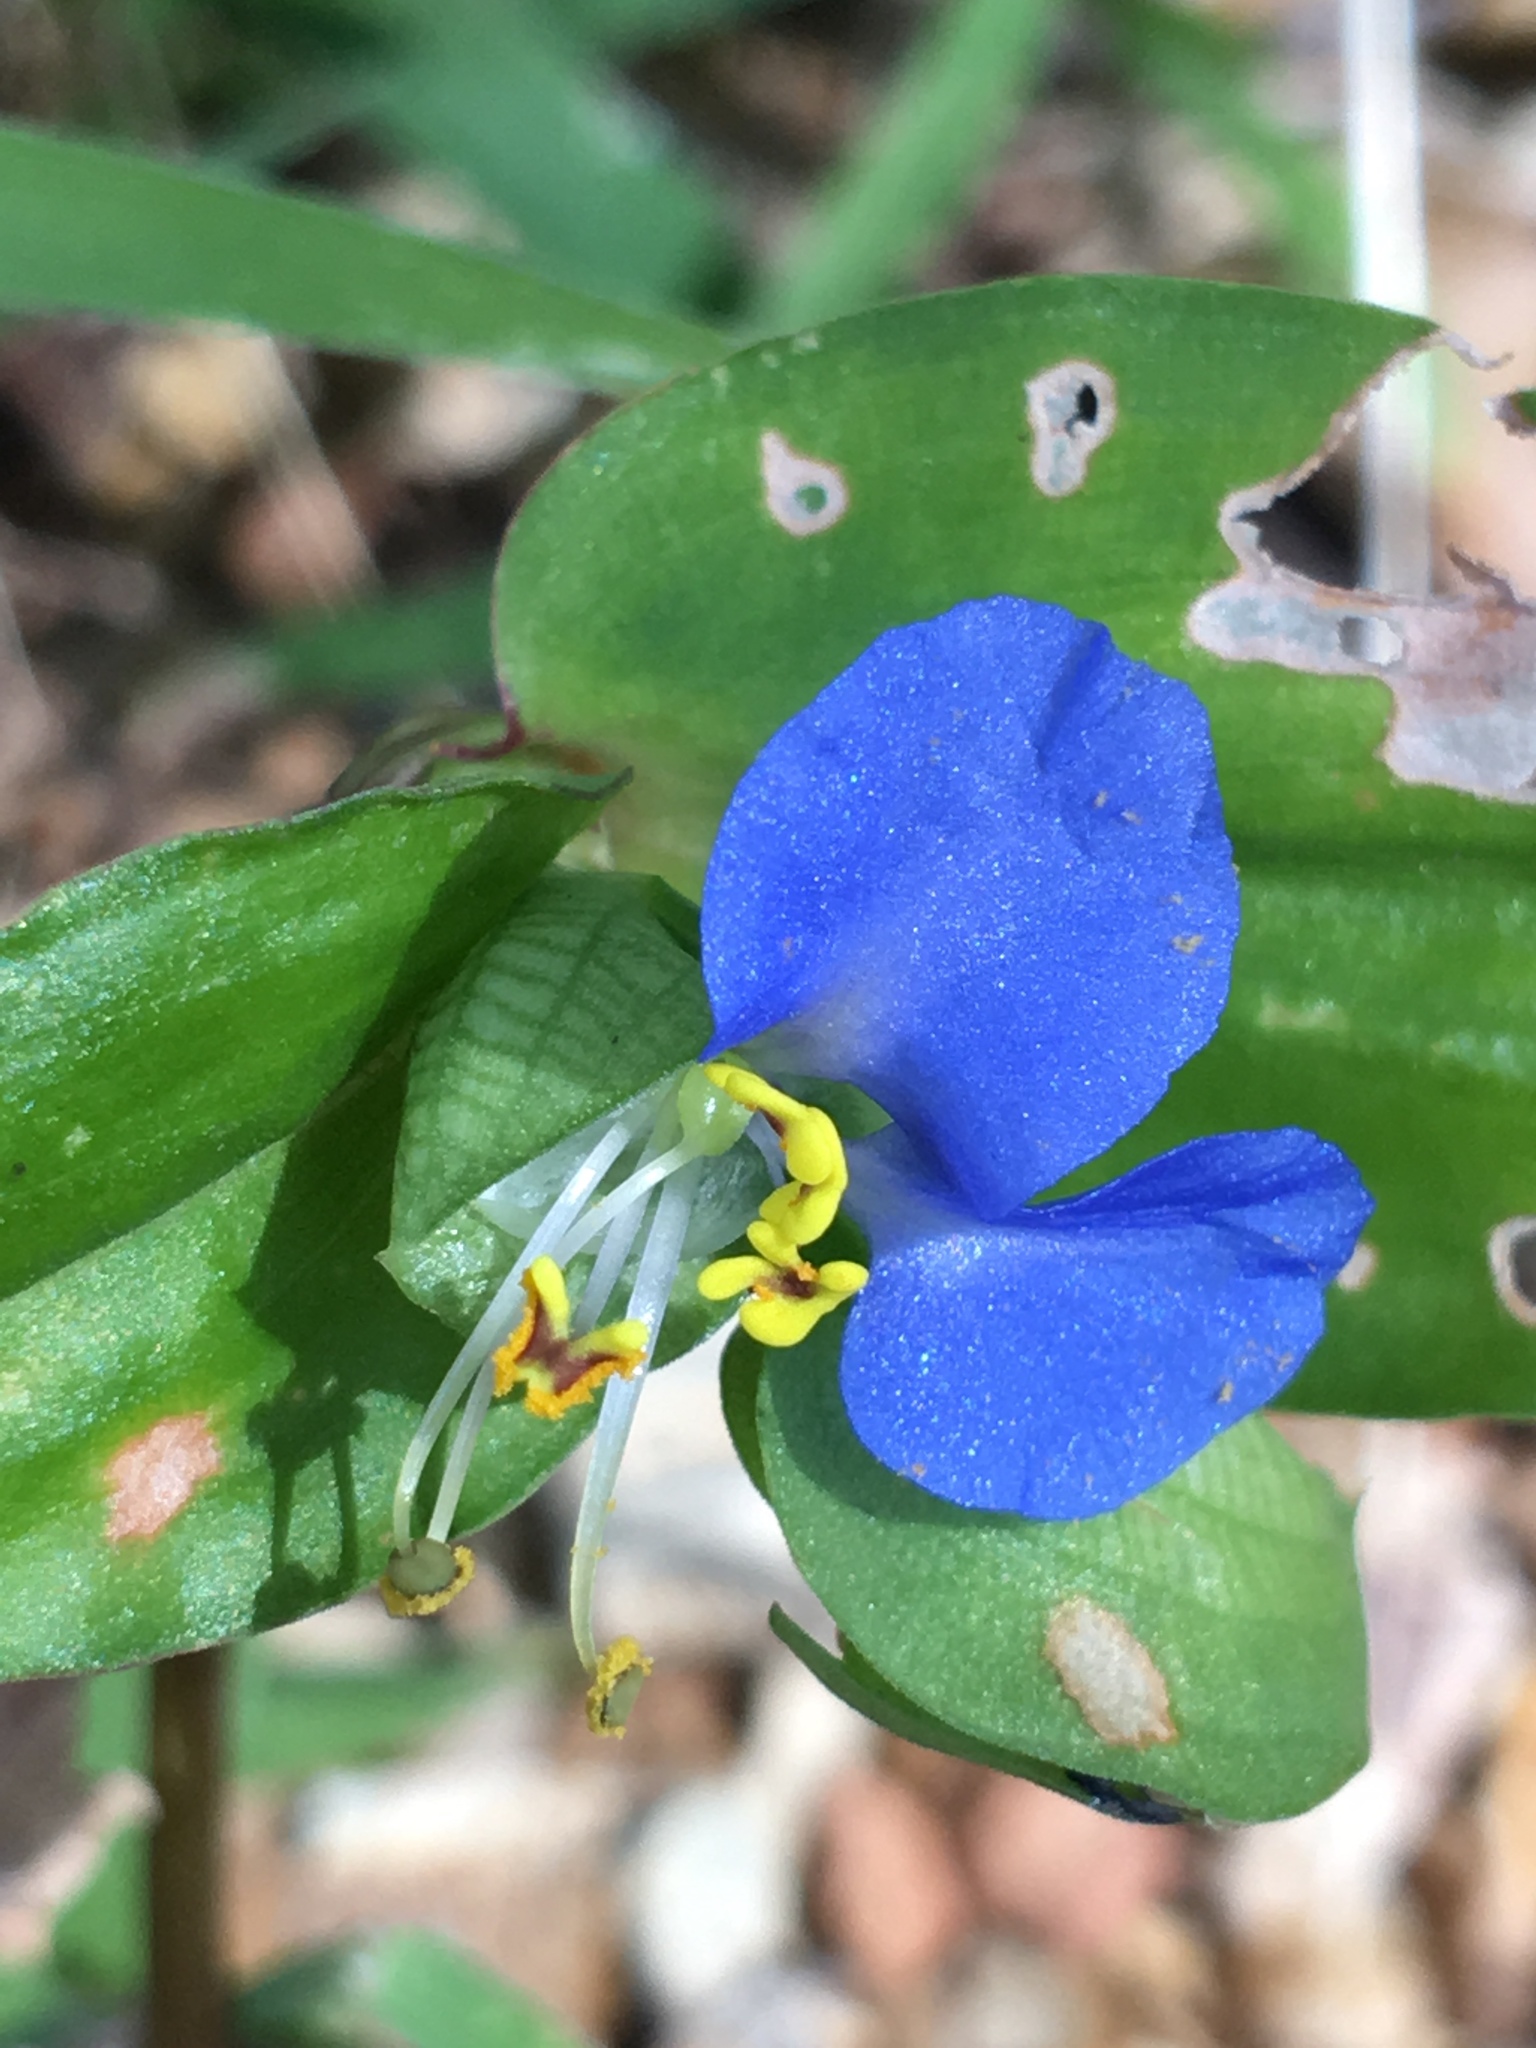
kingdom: Plantae
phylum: Tracheophyta
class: Liliopsida
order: Commelinales
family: Commelinaceae
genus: Commelina
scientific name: Commelina communis
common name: Asiatic dayflower
